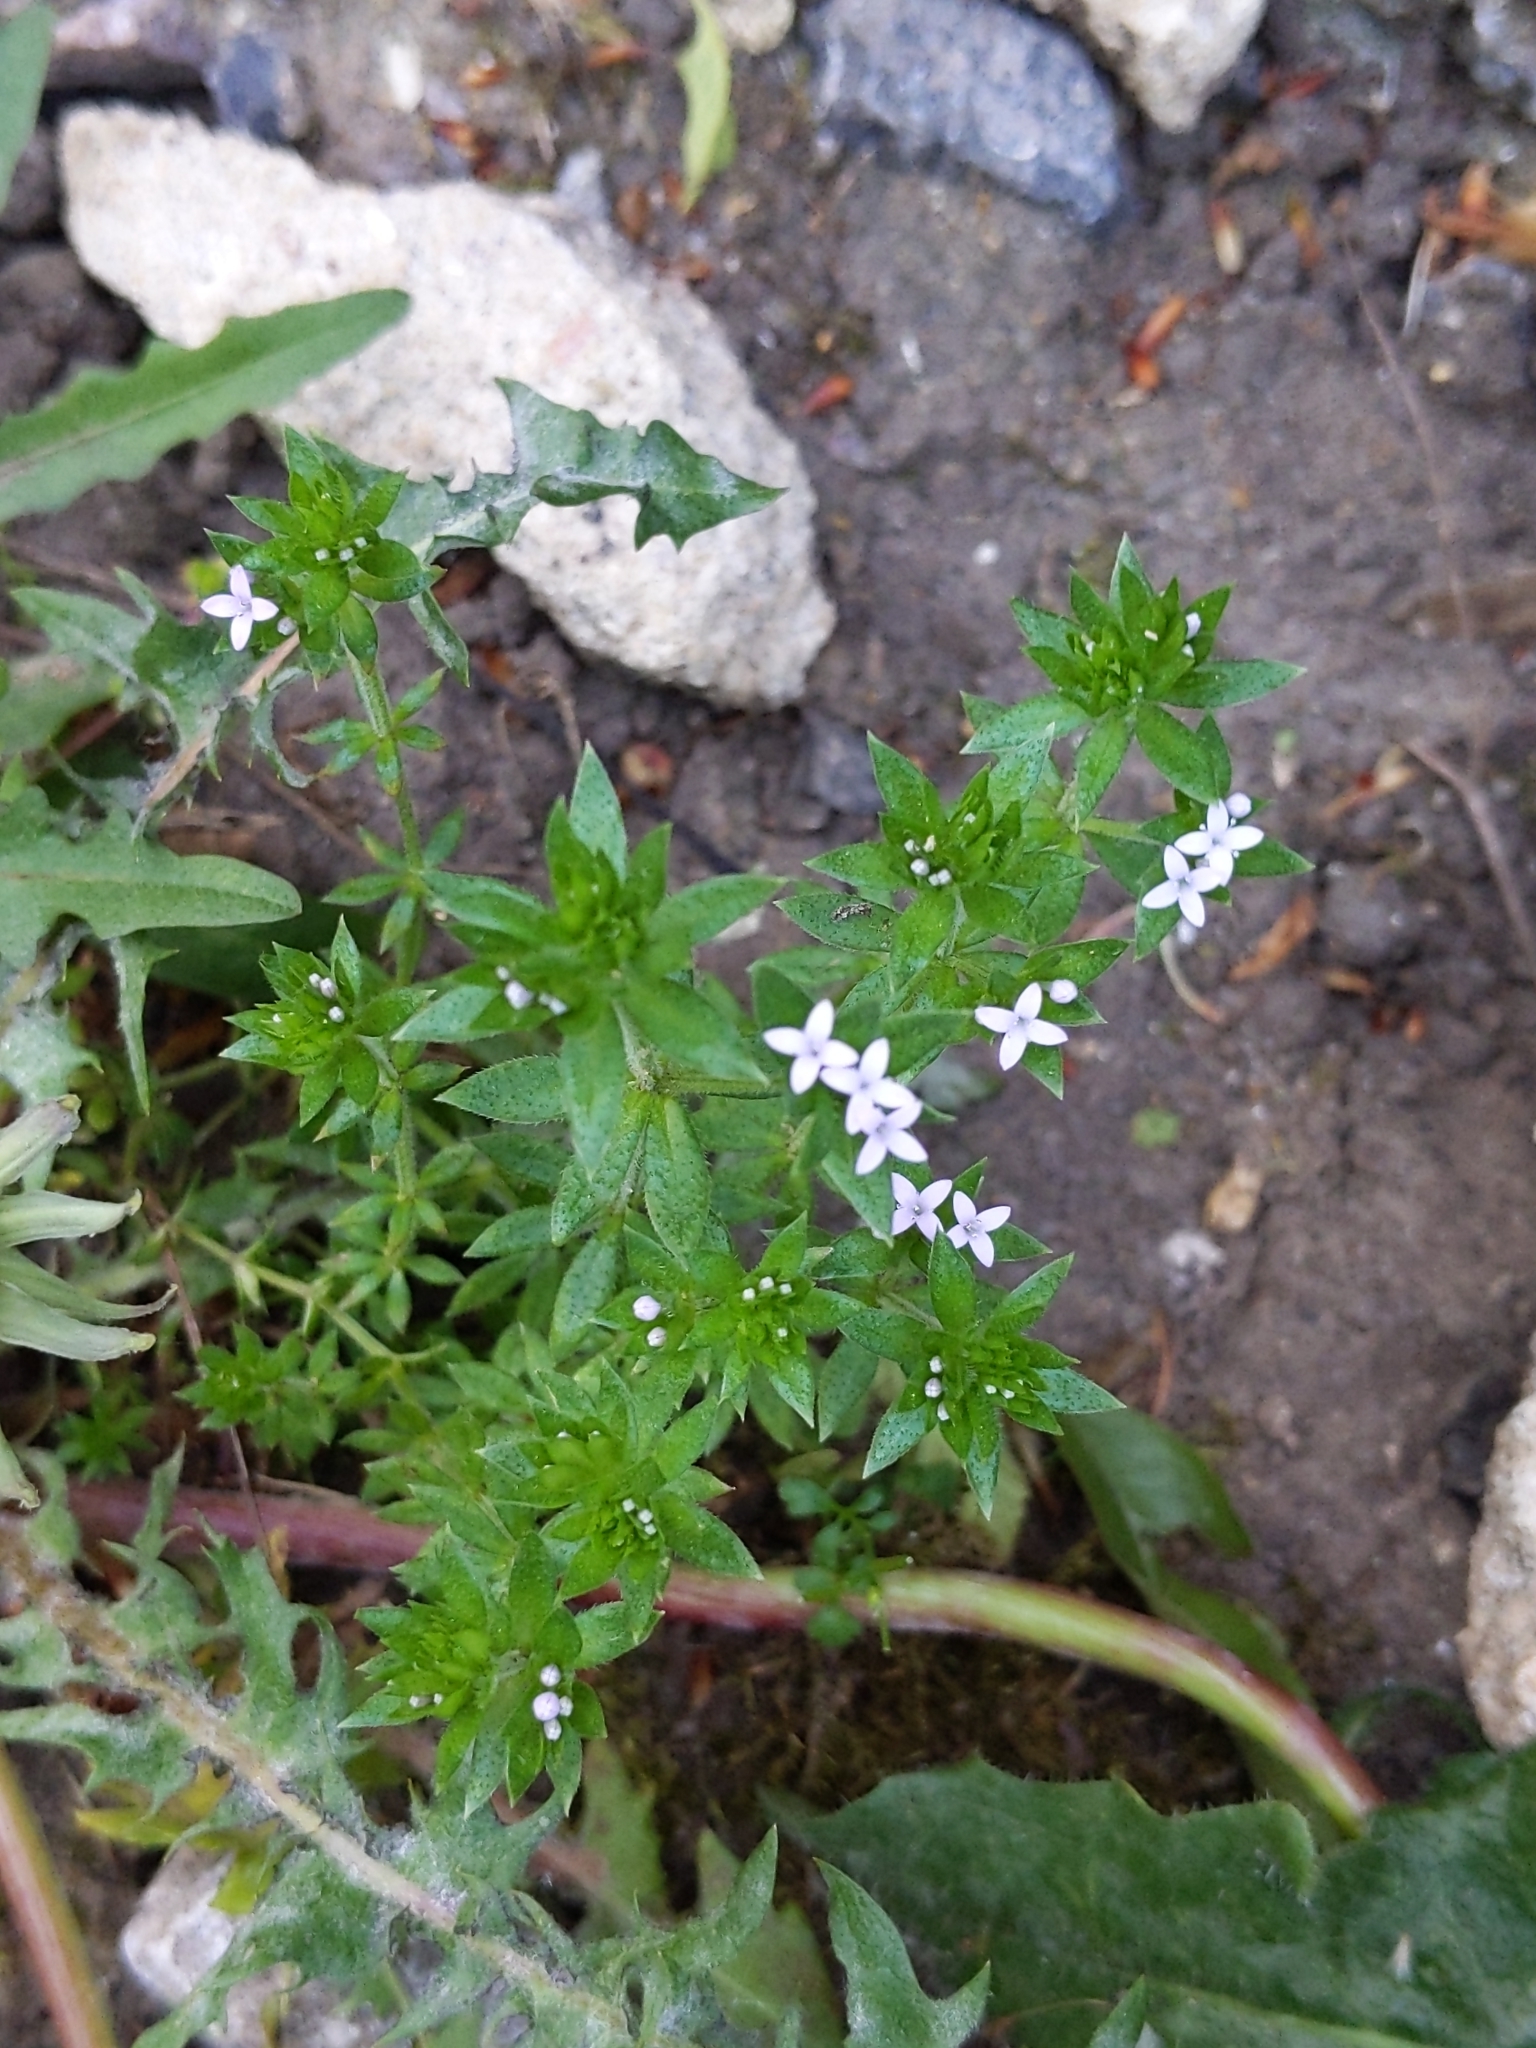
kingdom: Plantae
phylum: Tracheophyta
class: Magnoliopsida
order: Gentianales
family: Rubiaceae
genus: Sherardia
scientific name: Sherardia arvensis
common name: Field madder
